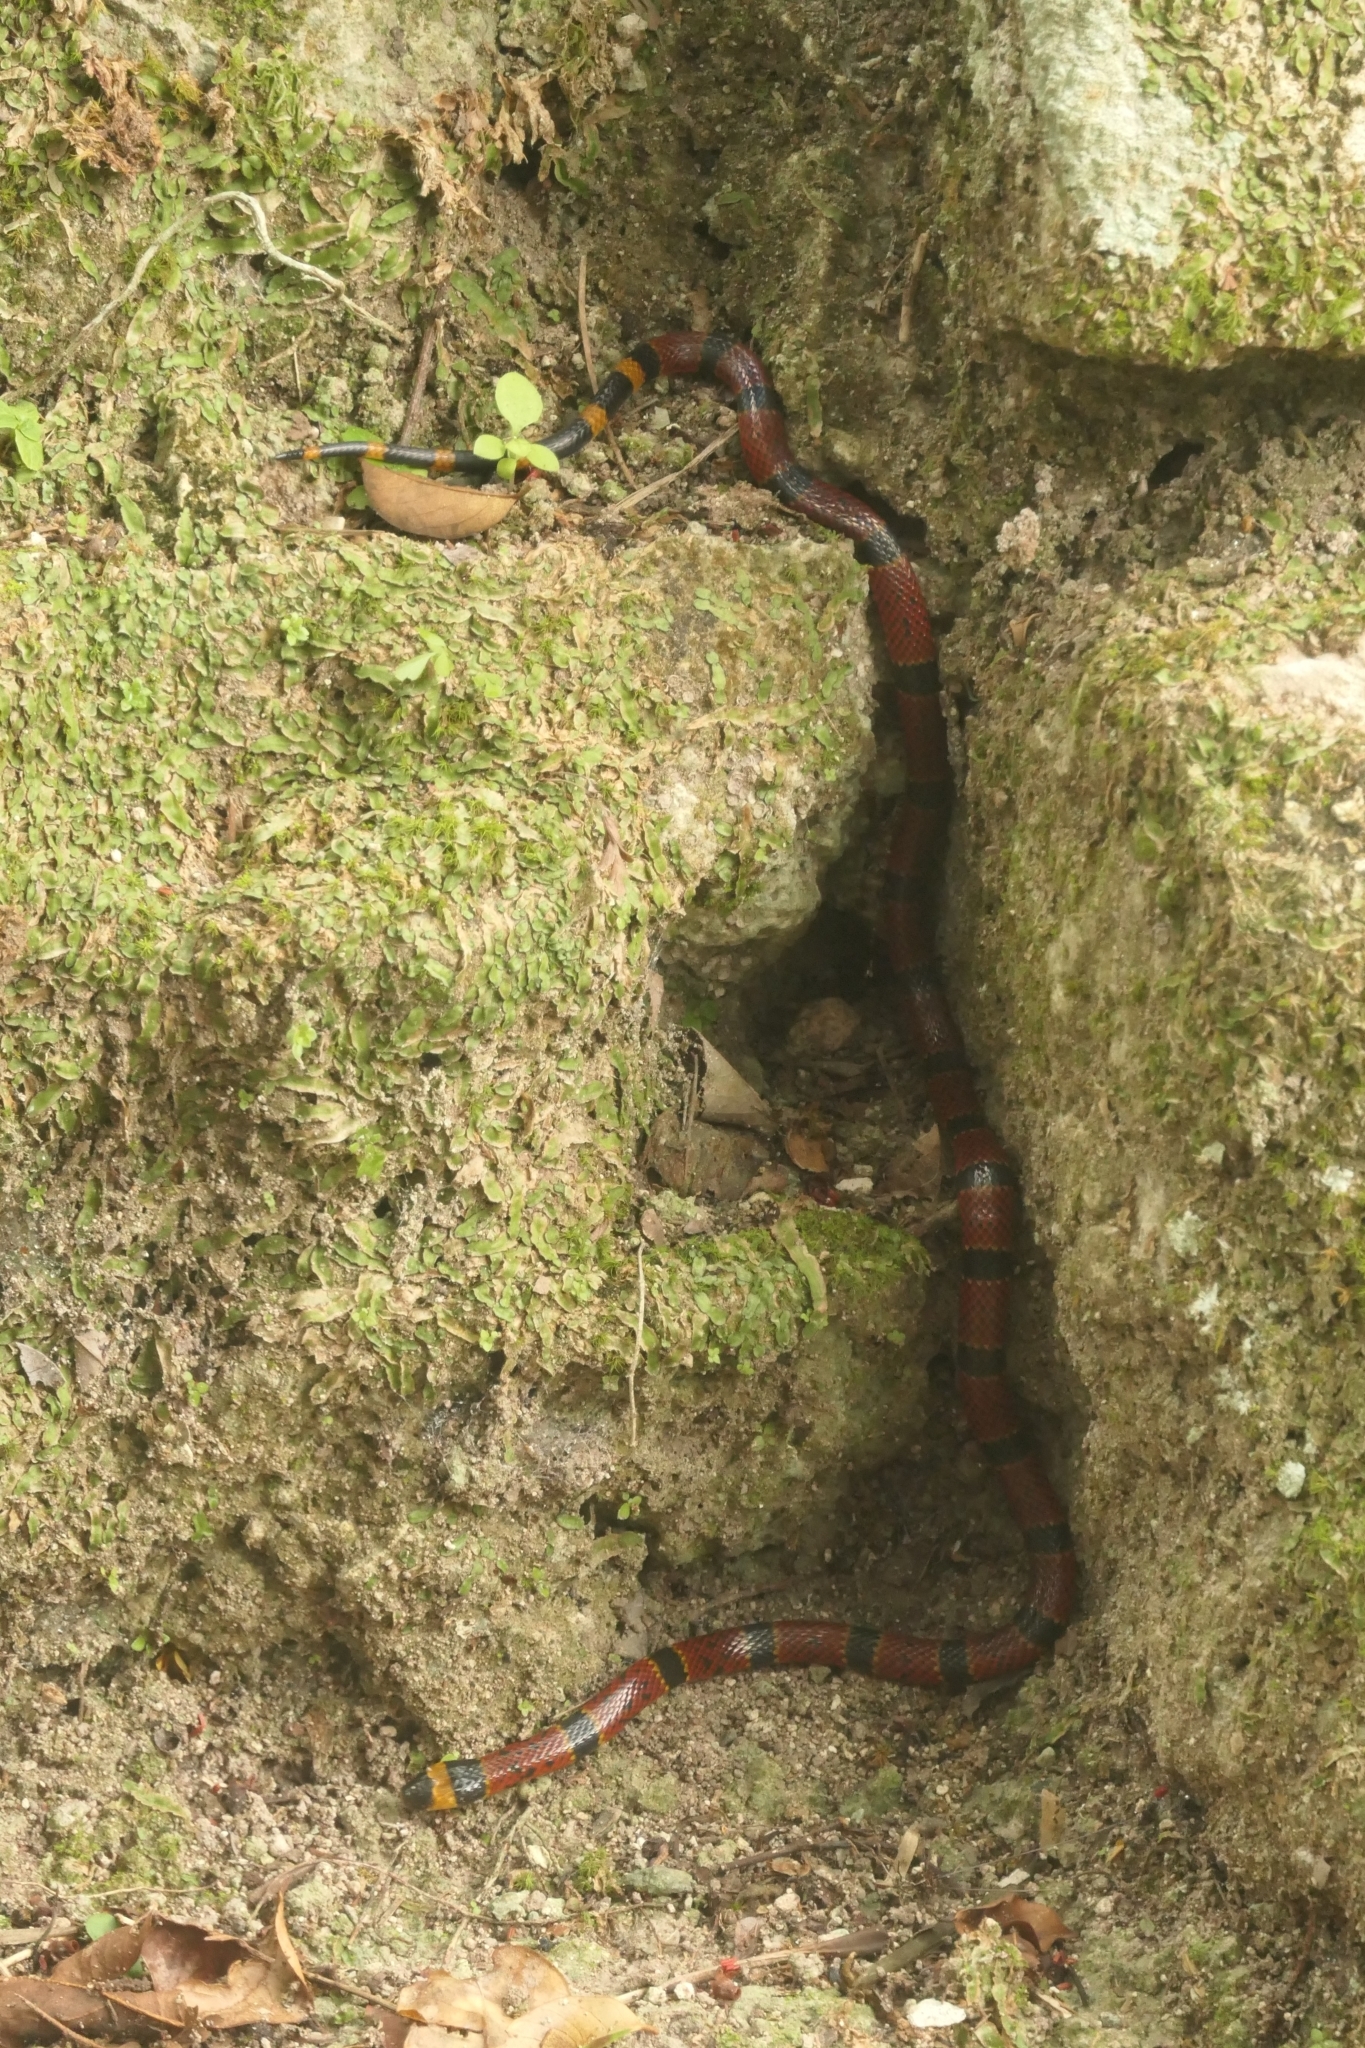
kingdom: Animalia
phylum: Chordata
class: Squamata
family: Elapidae
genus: Micrurus
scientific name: Micrurus diastema
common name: Diastema coral snake
